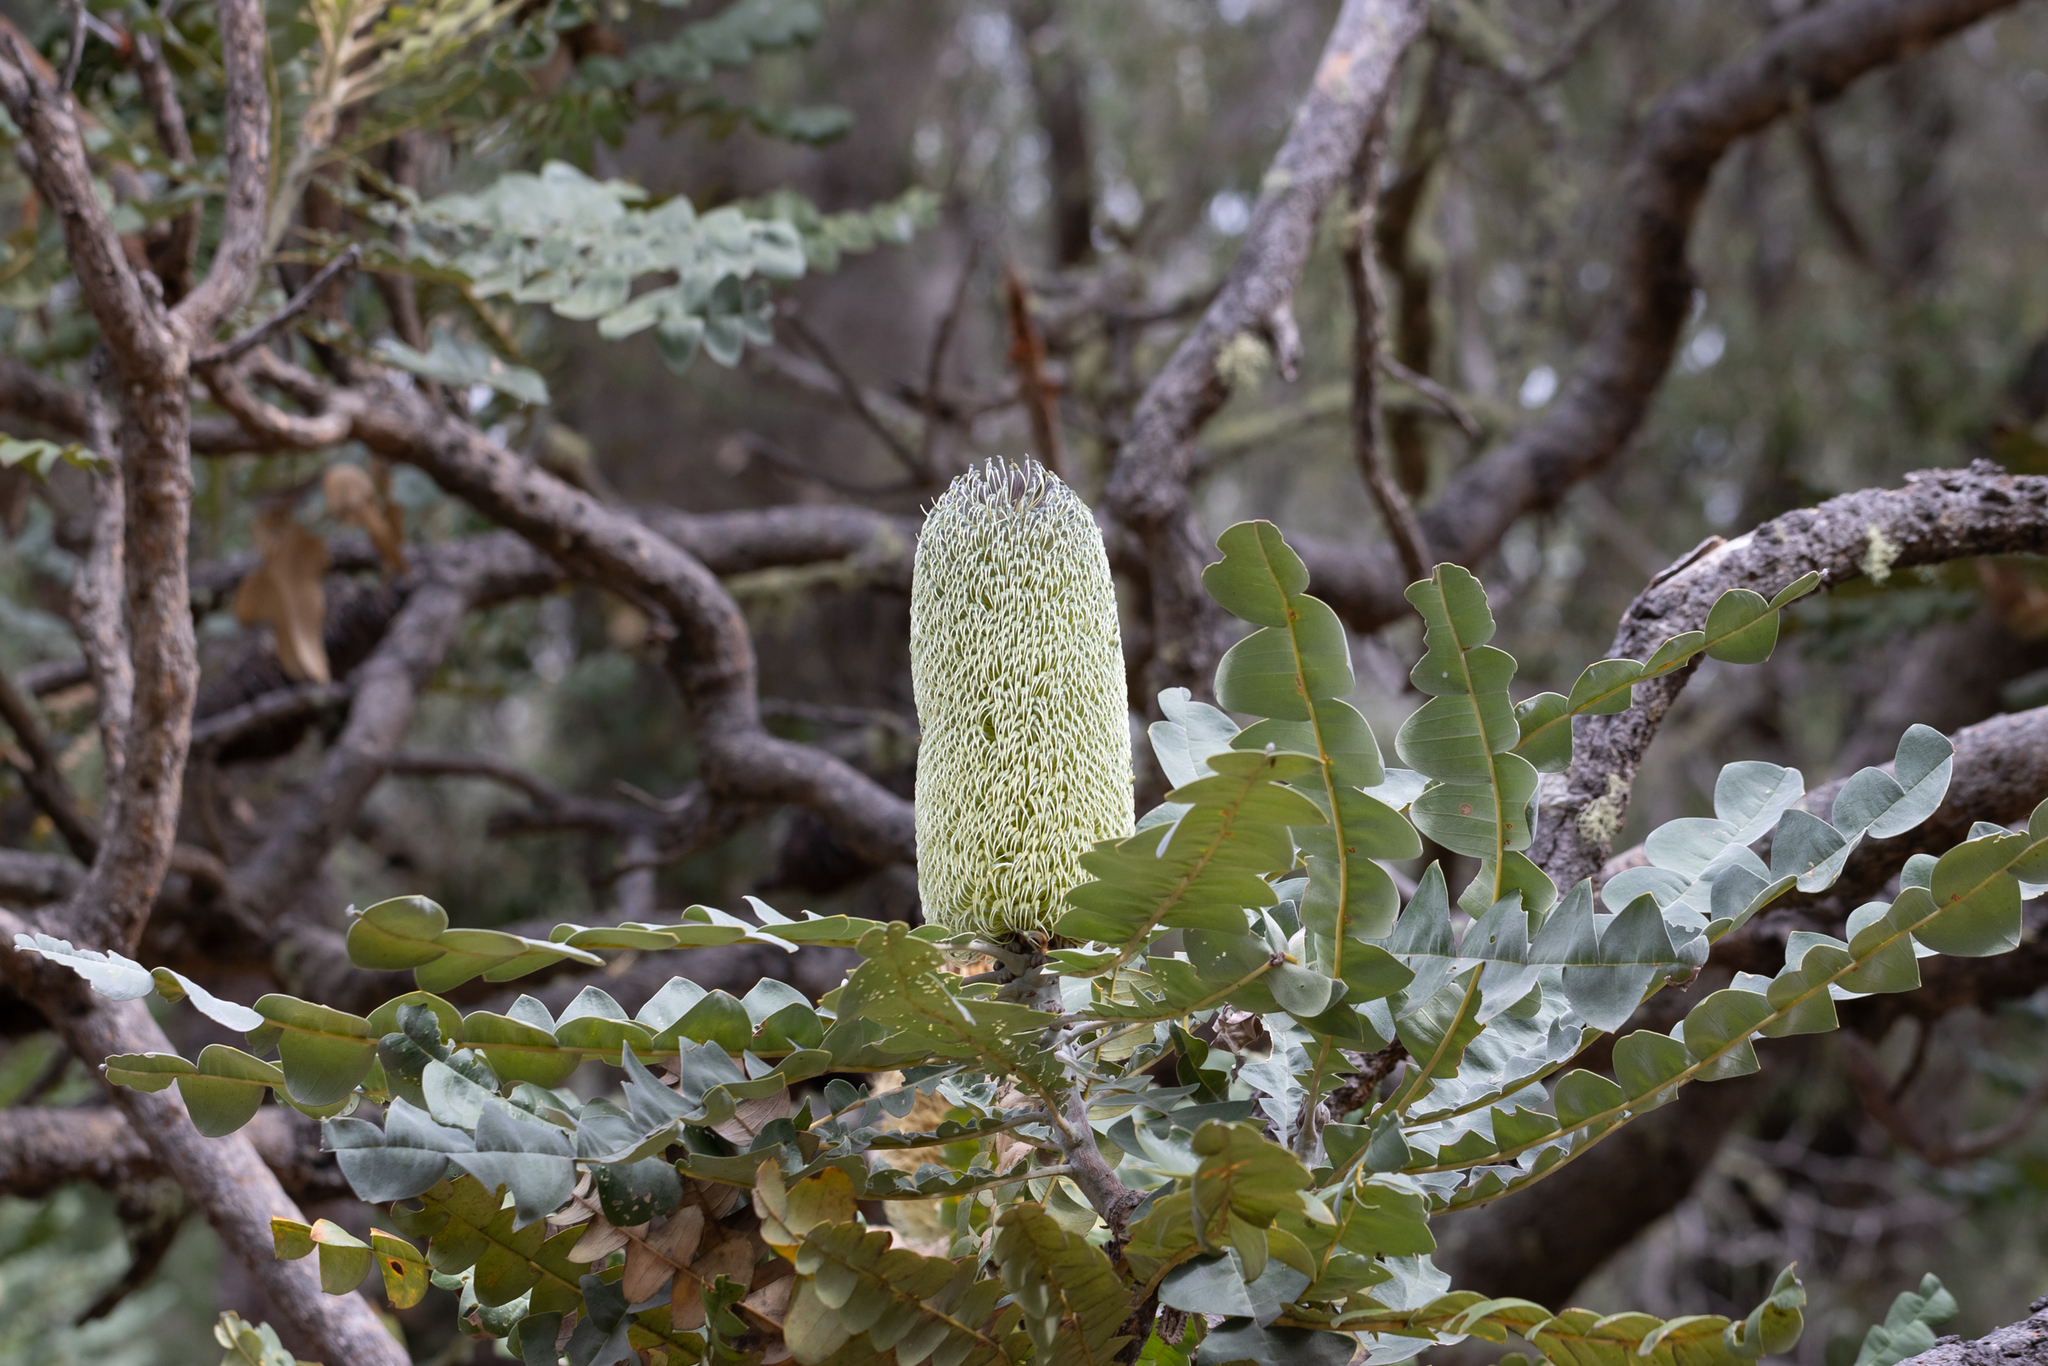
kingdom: Plantae
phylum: Tracheophyta
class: Magnoliopsida
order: Proteales
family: Proteaceae
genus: Banksia
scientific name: Banksia grandis
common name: Giant banksia
